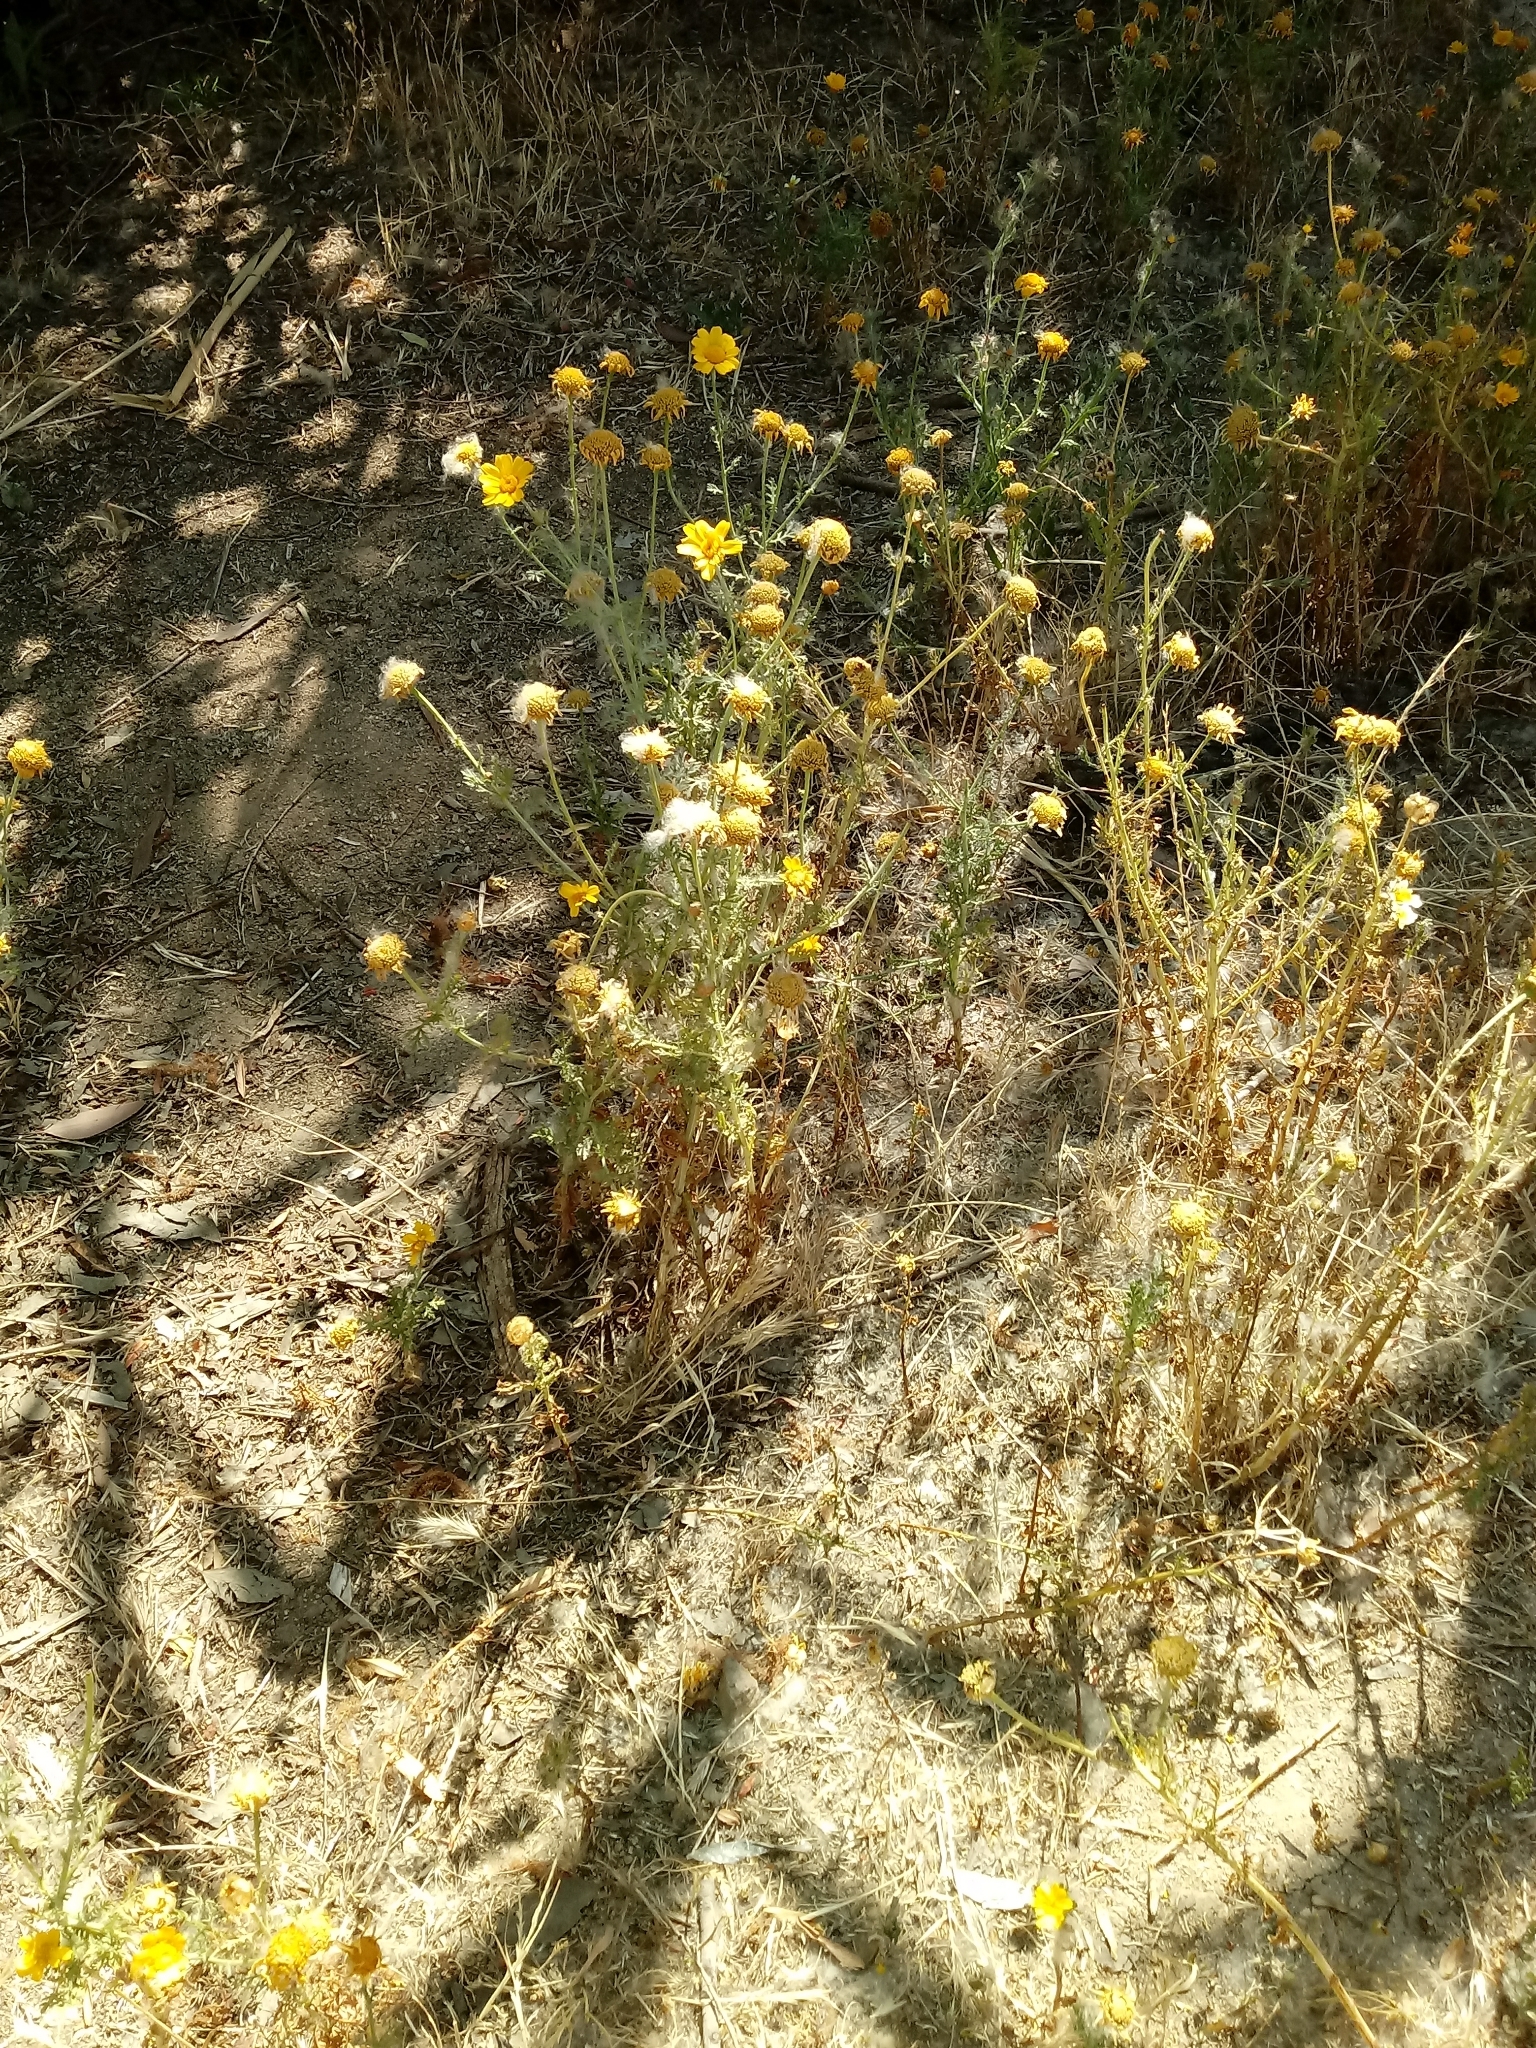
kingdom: Plantae
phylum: Tracheophyta
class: Magnoliopsida
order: Asterales
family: Asteraceae
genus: Glebionis
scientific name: Glebionis coronaria
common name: Crowndaisy
